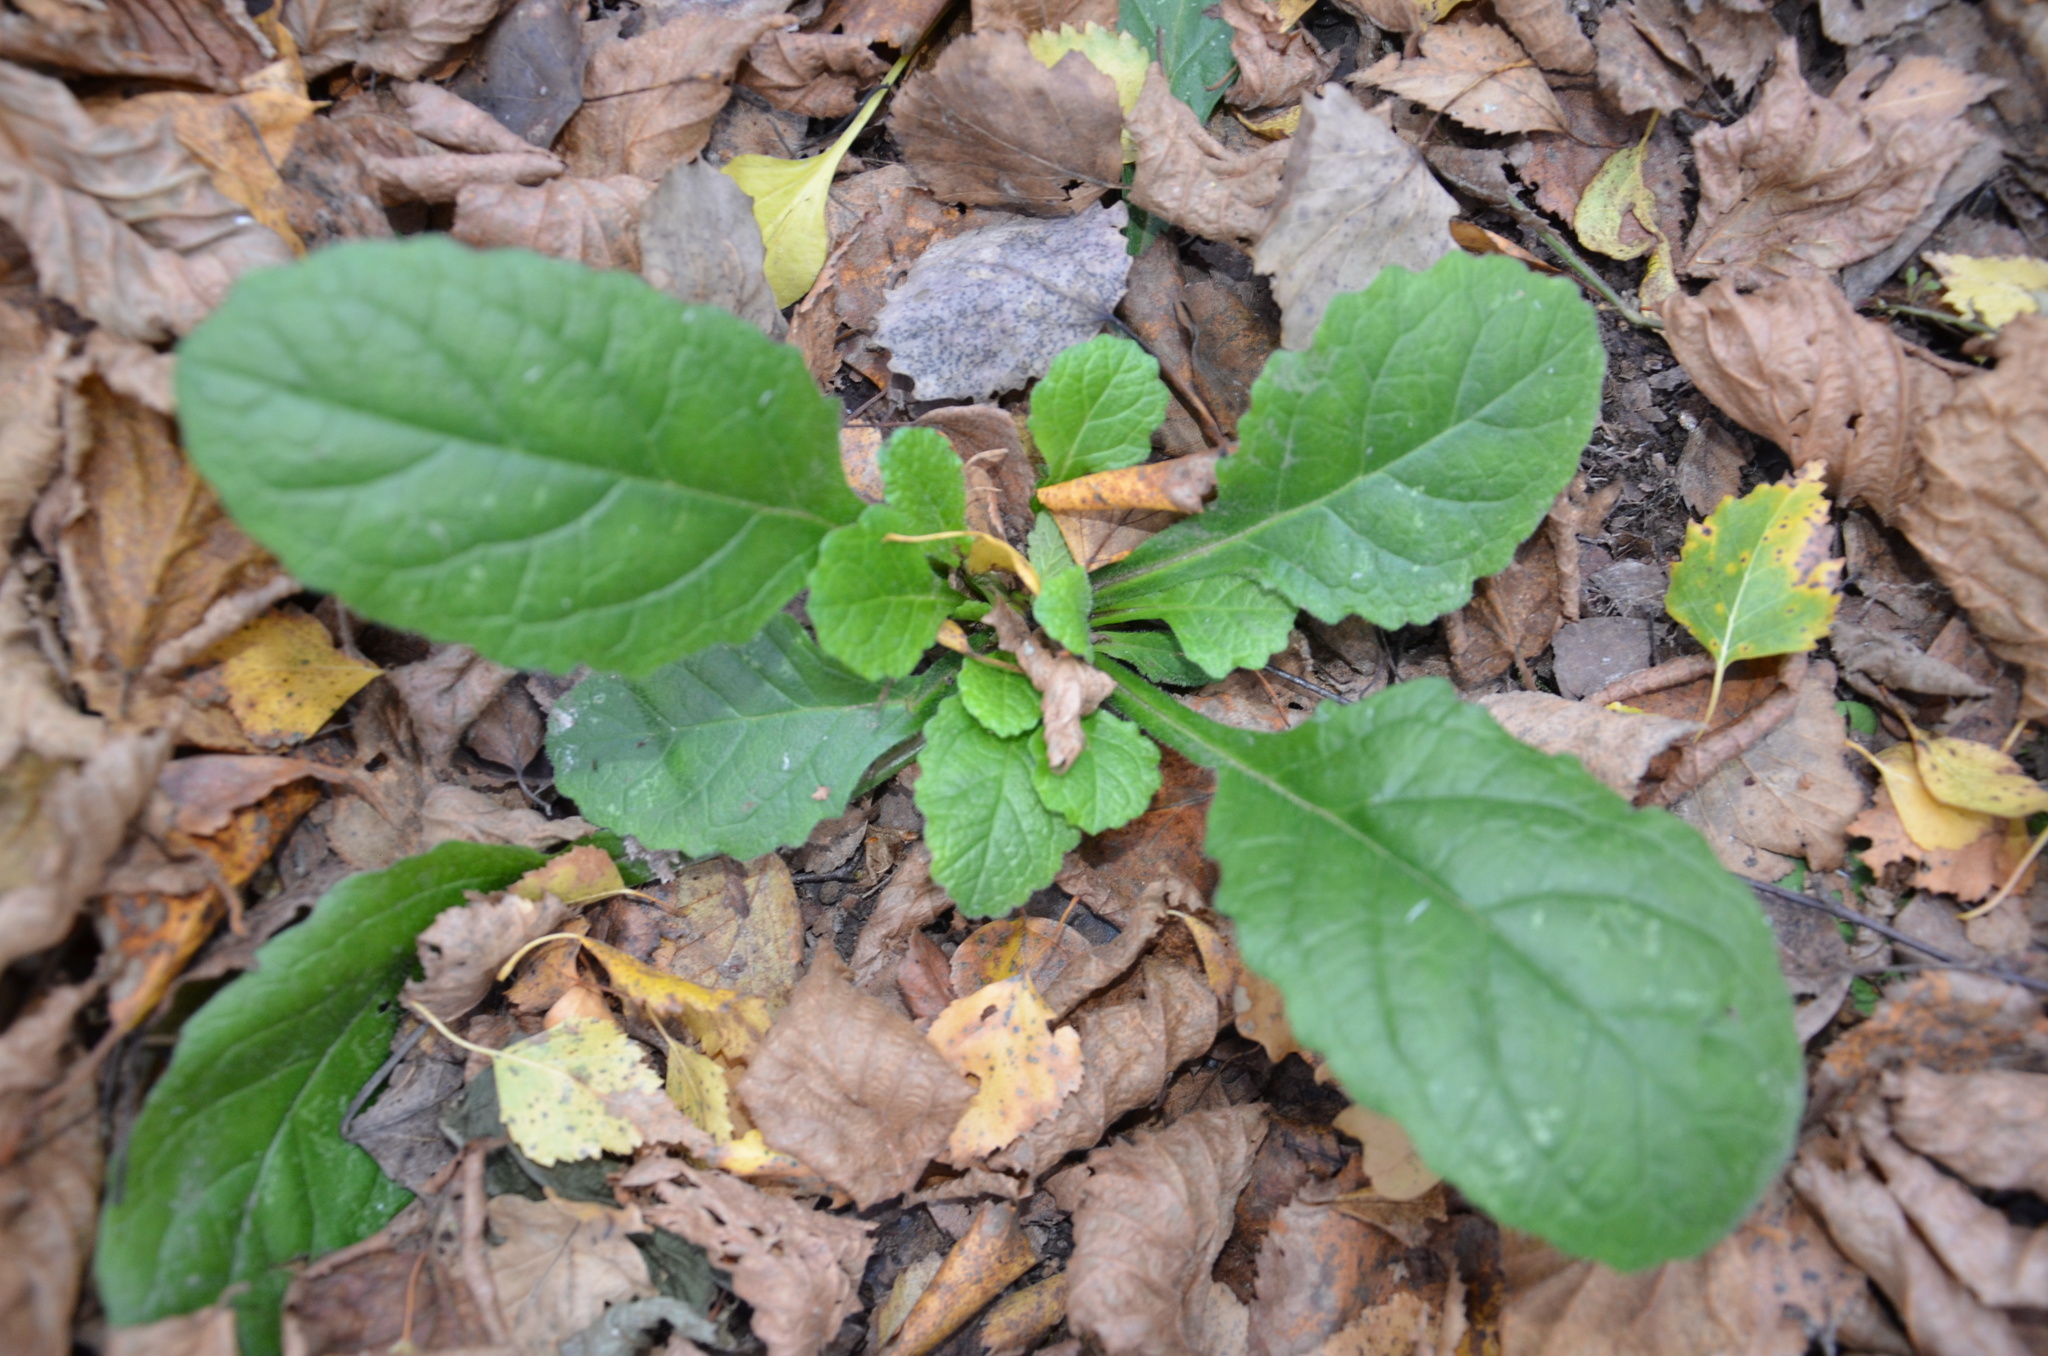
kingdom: Plantae
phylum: Tracheophyta
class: Magnoliopsida
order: Lamiales
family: Lamiaceae
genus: Ajuga
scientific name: Ajuga reptans
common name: Bugle
